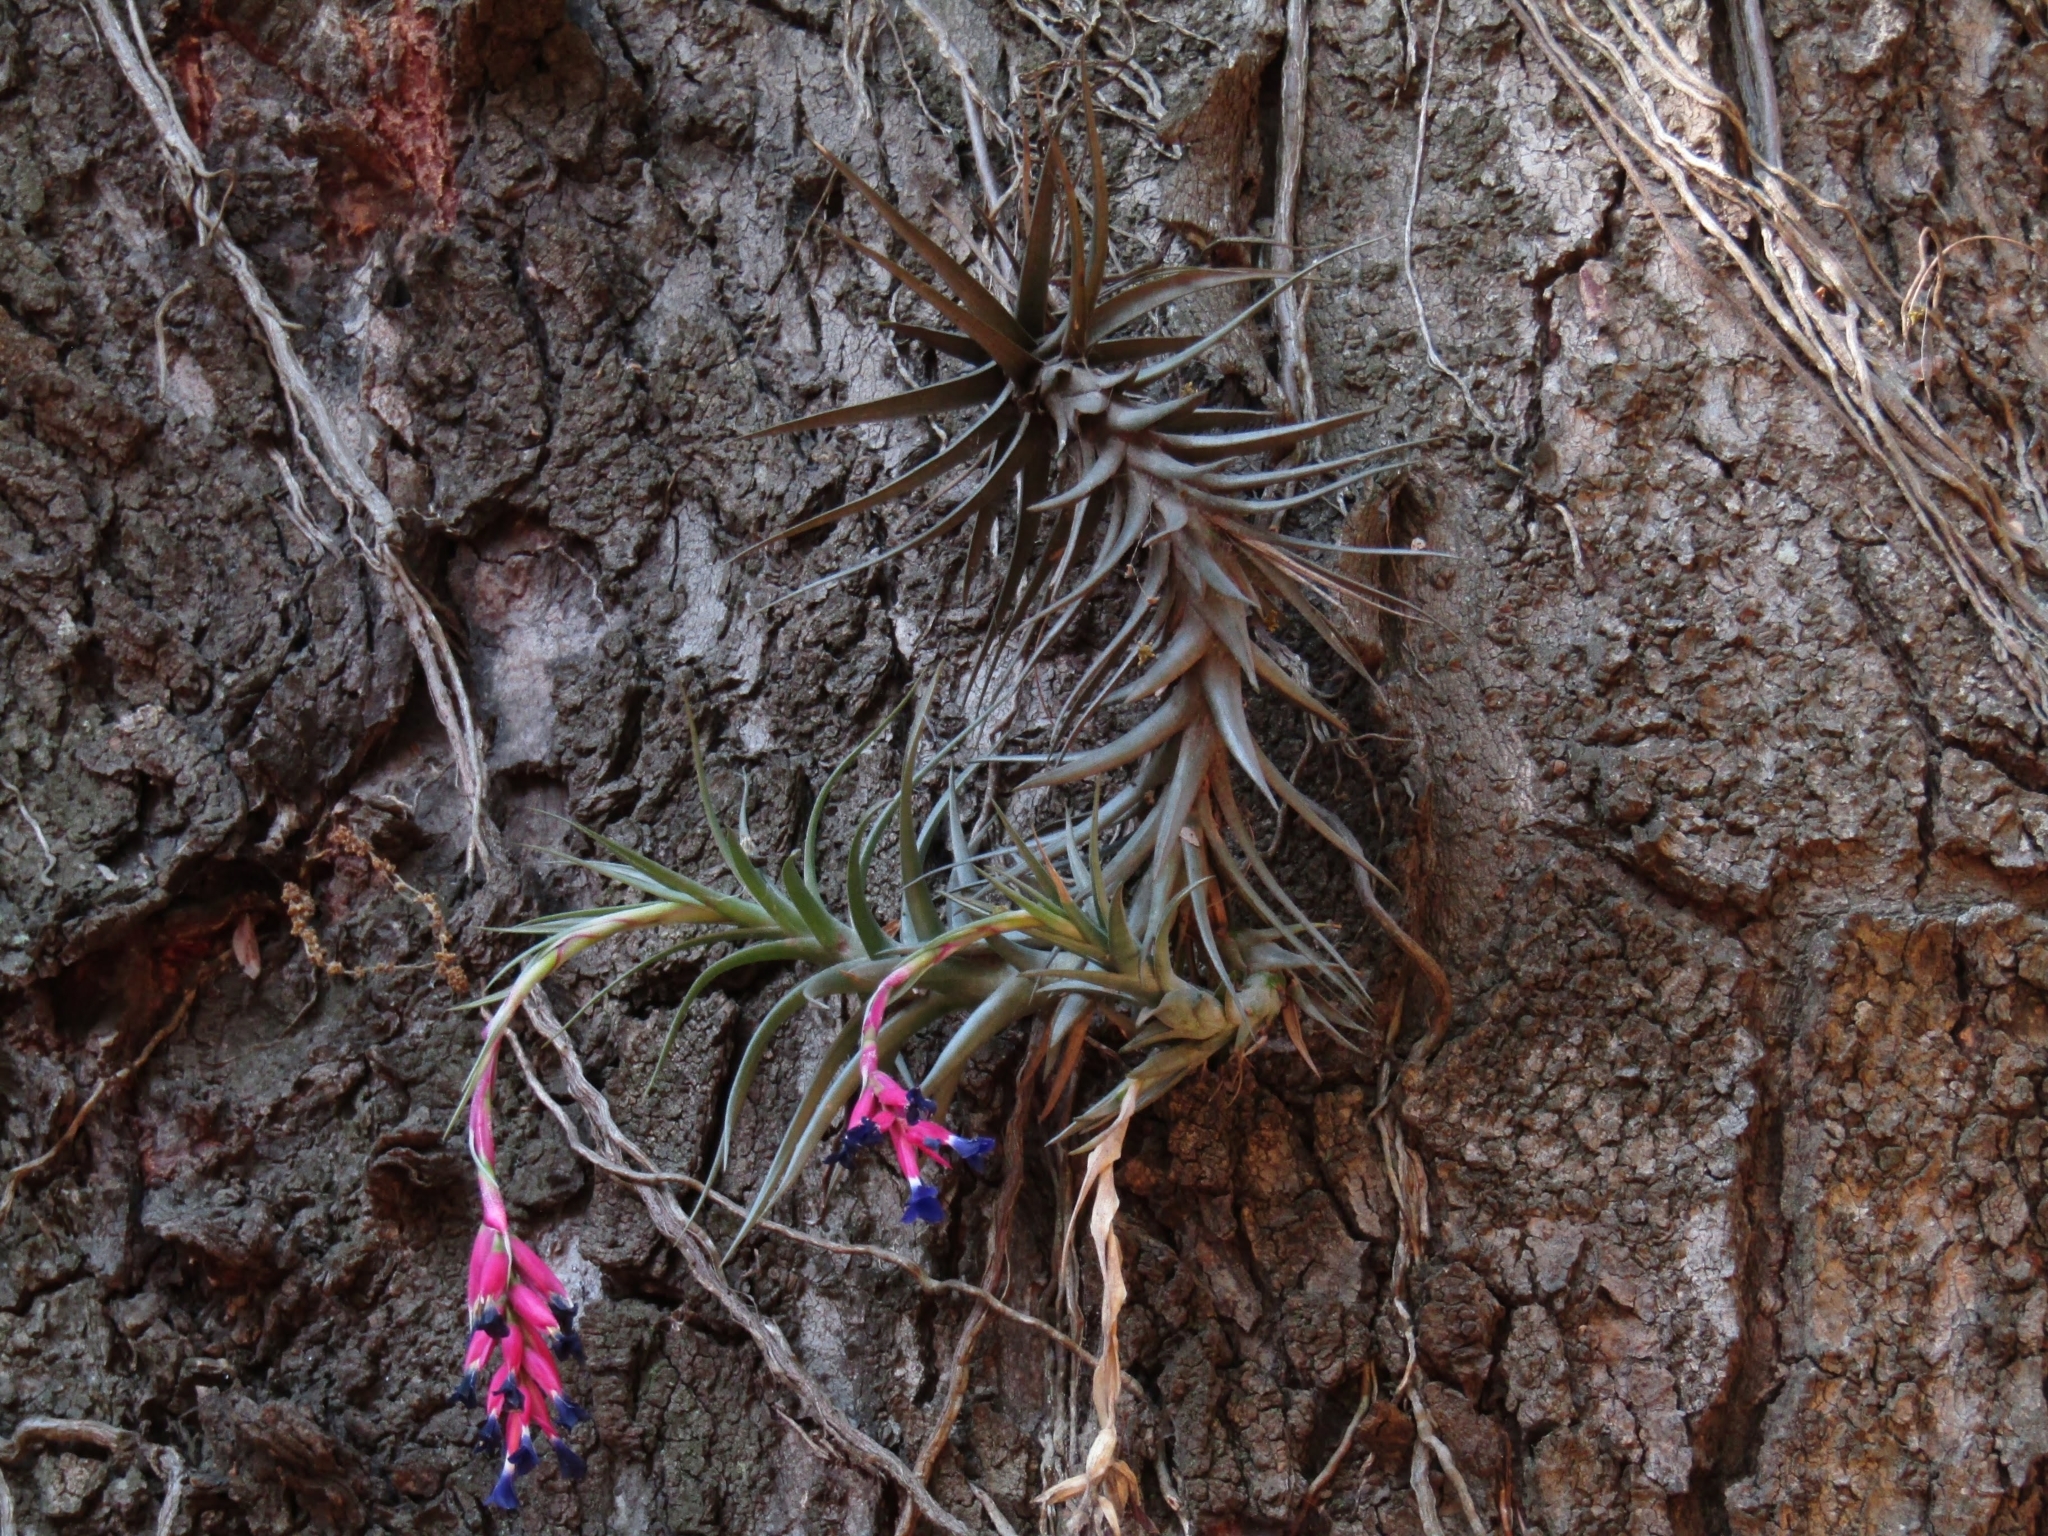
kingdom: Plantae
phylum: Tracheophyta
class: Liliopsida
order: Poales
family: Bromeliaceae
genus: Tillandsia
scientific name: Tillandsia aeranthos
